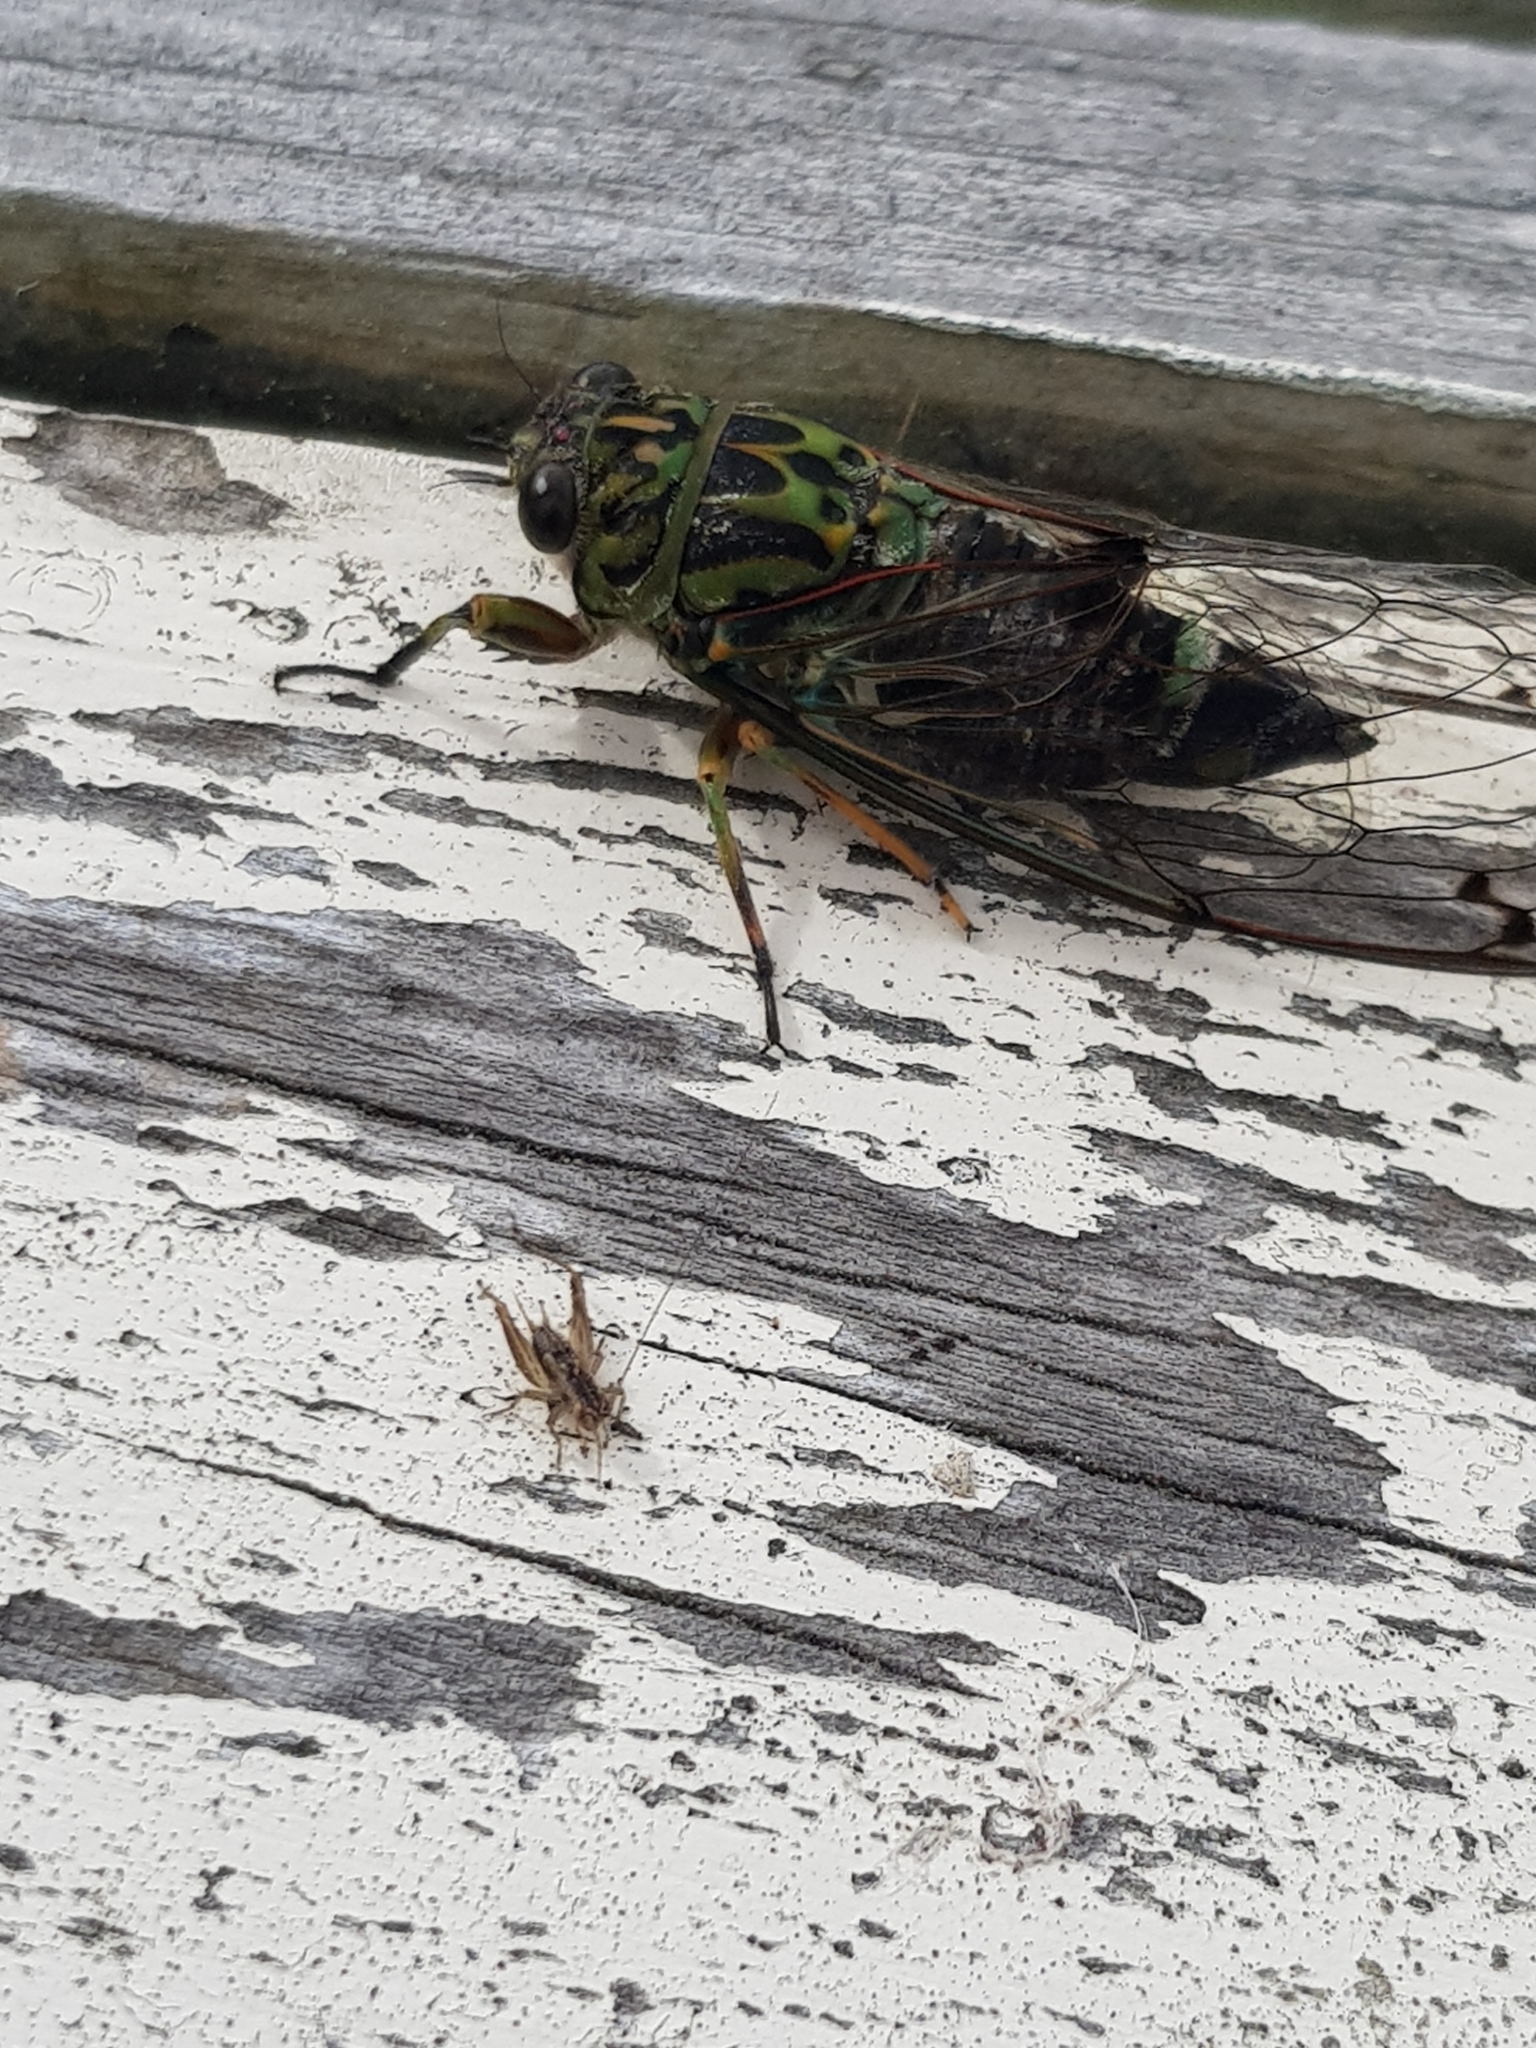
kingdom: Animalia
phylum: Arthropoda
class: Insecta
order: Hemiptera
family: Cicadidae
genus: Amphipsalta
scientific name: Amphipsalta zelandica
